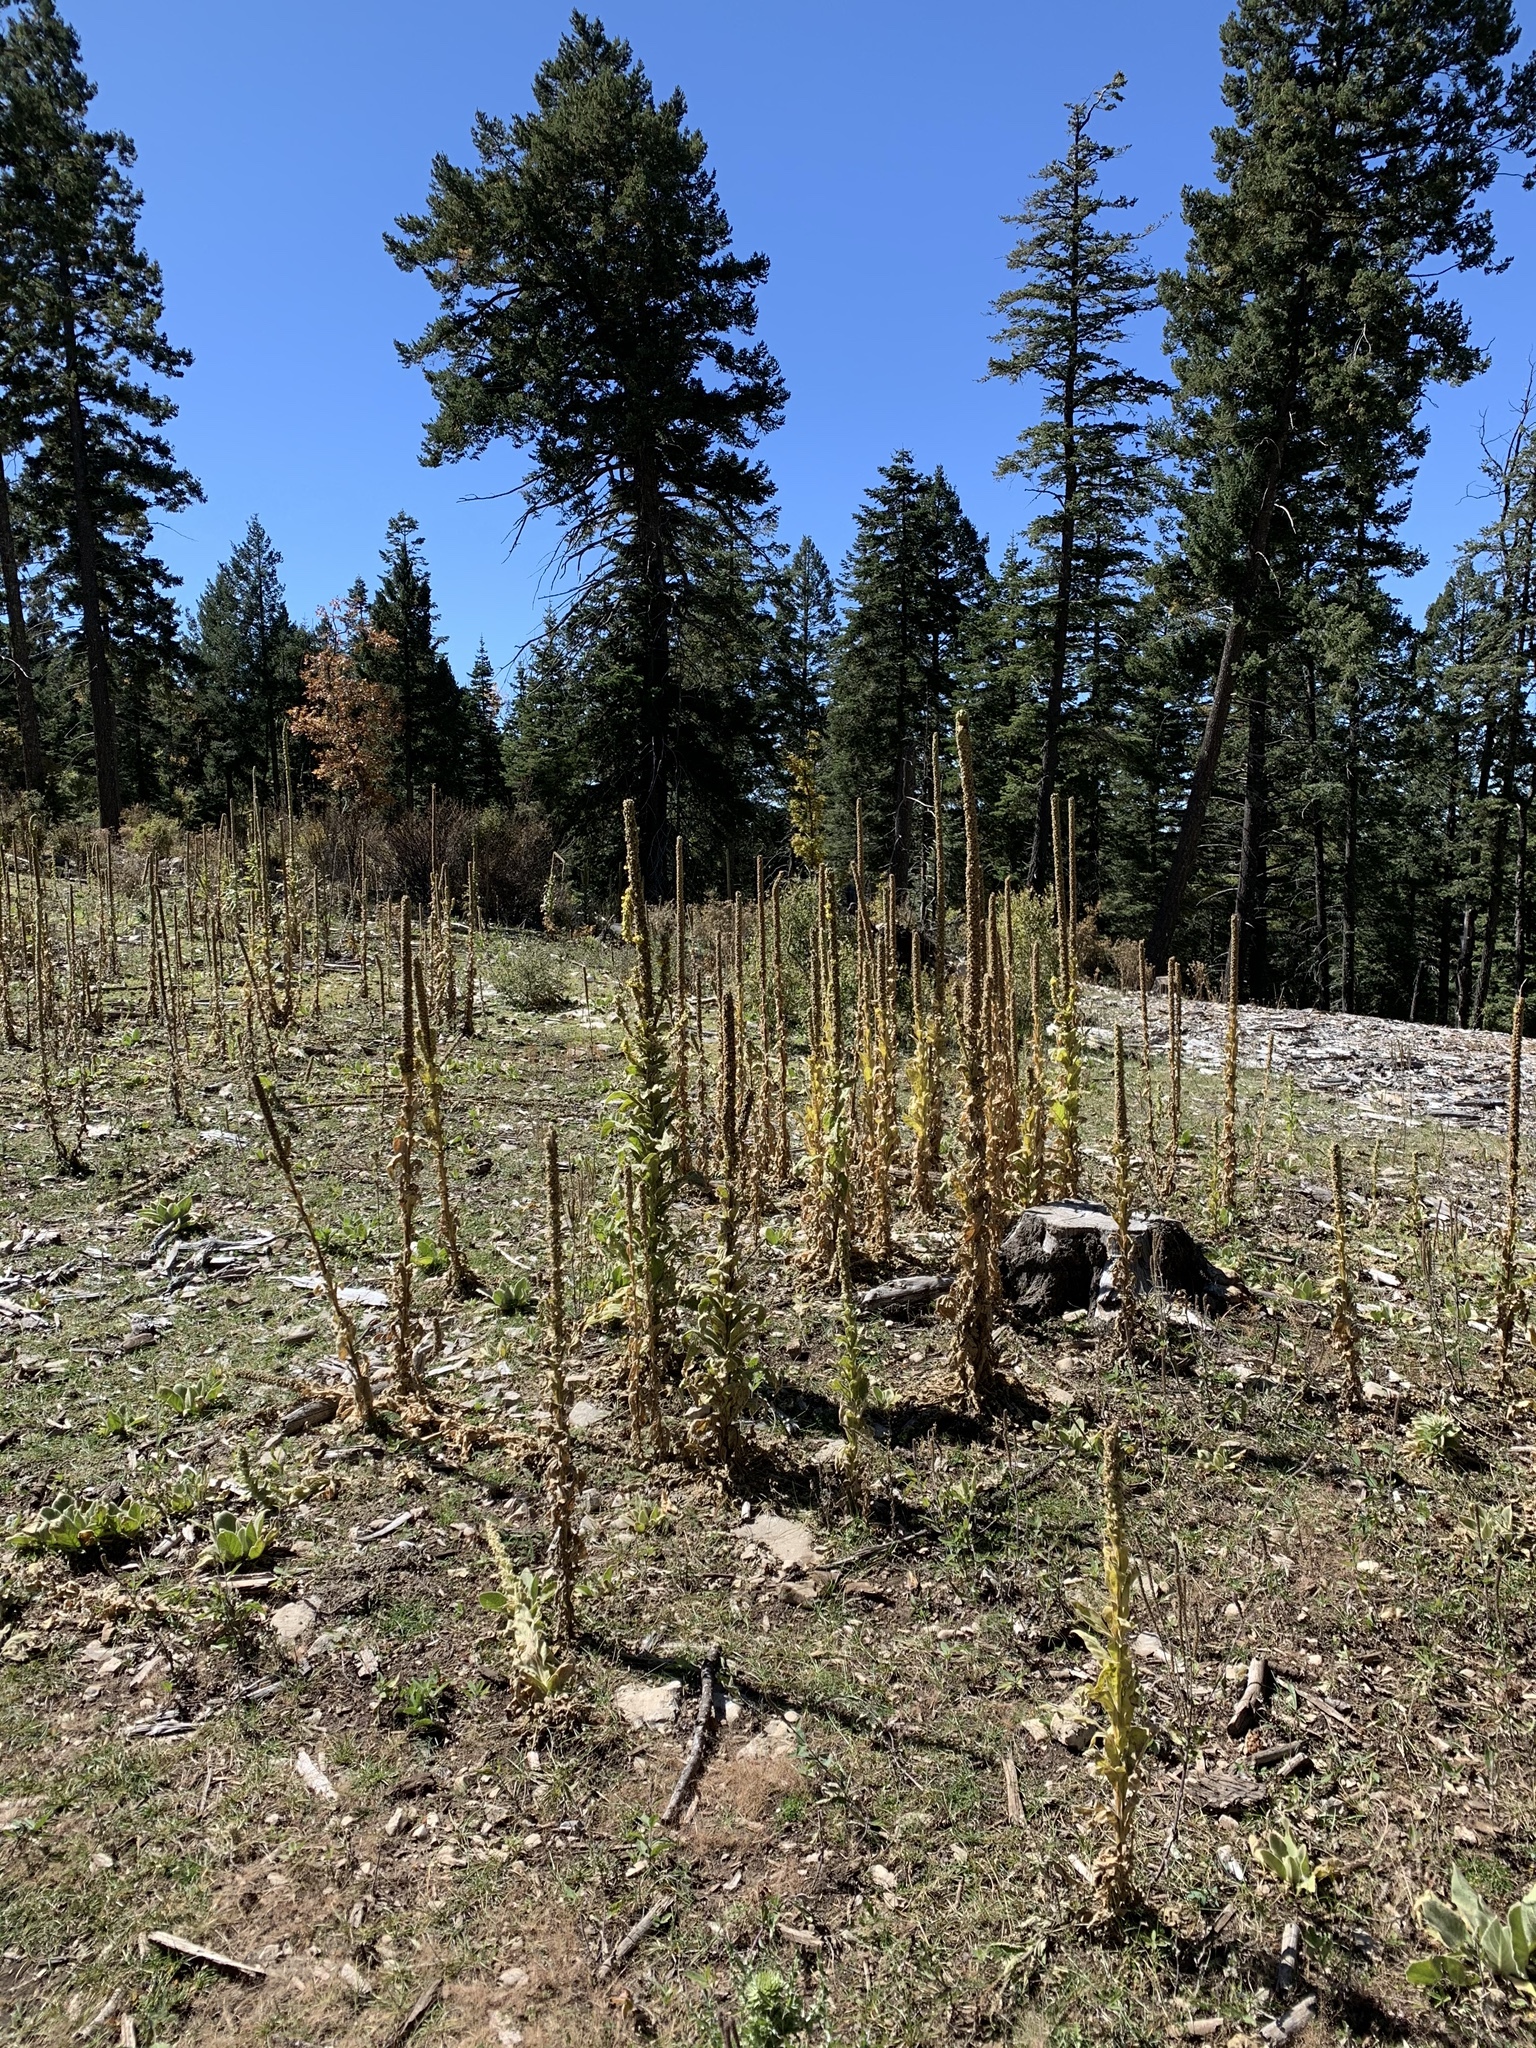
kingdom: Plantae
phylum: Tracheophyta
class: Magnoliopsida
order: Lamiales
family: Scrophulariaceae
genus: Verbascum
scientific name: Verbascum thapsus
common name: Common mullein
